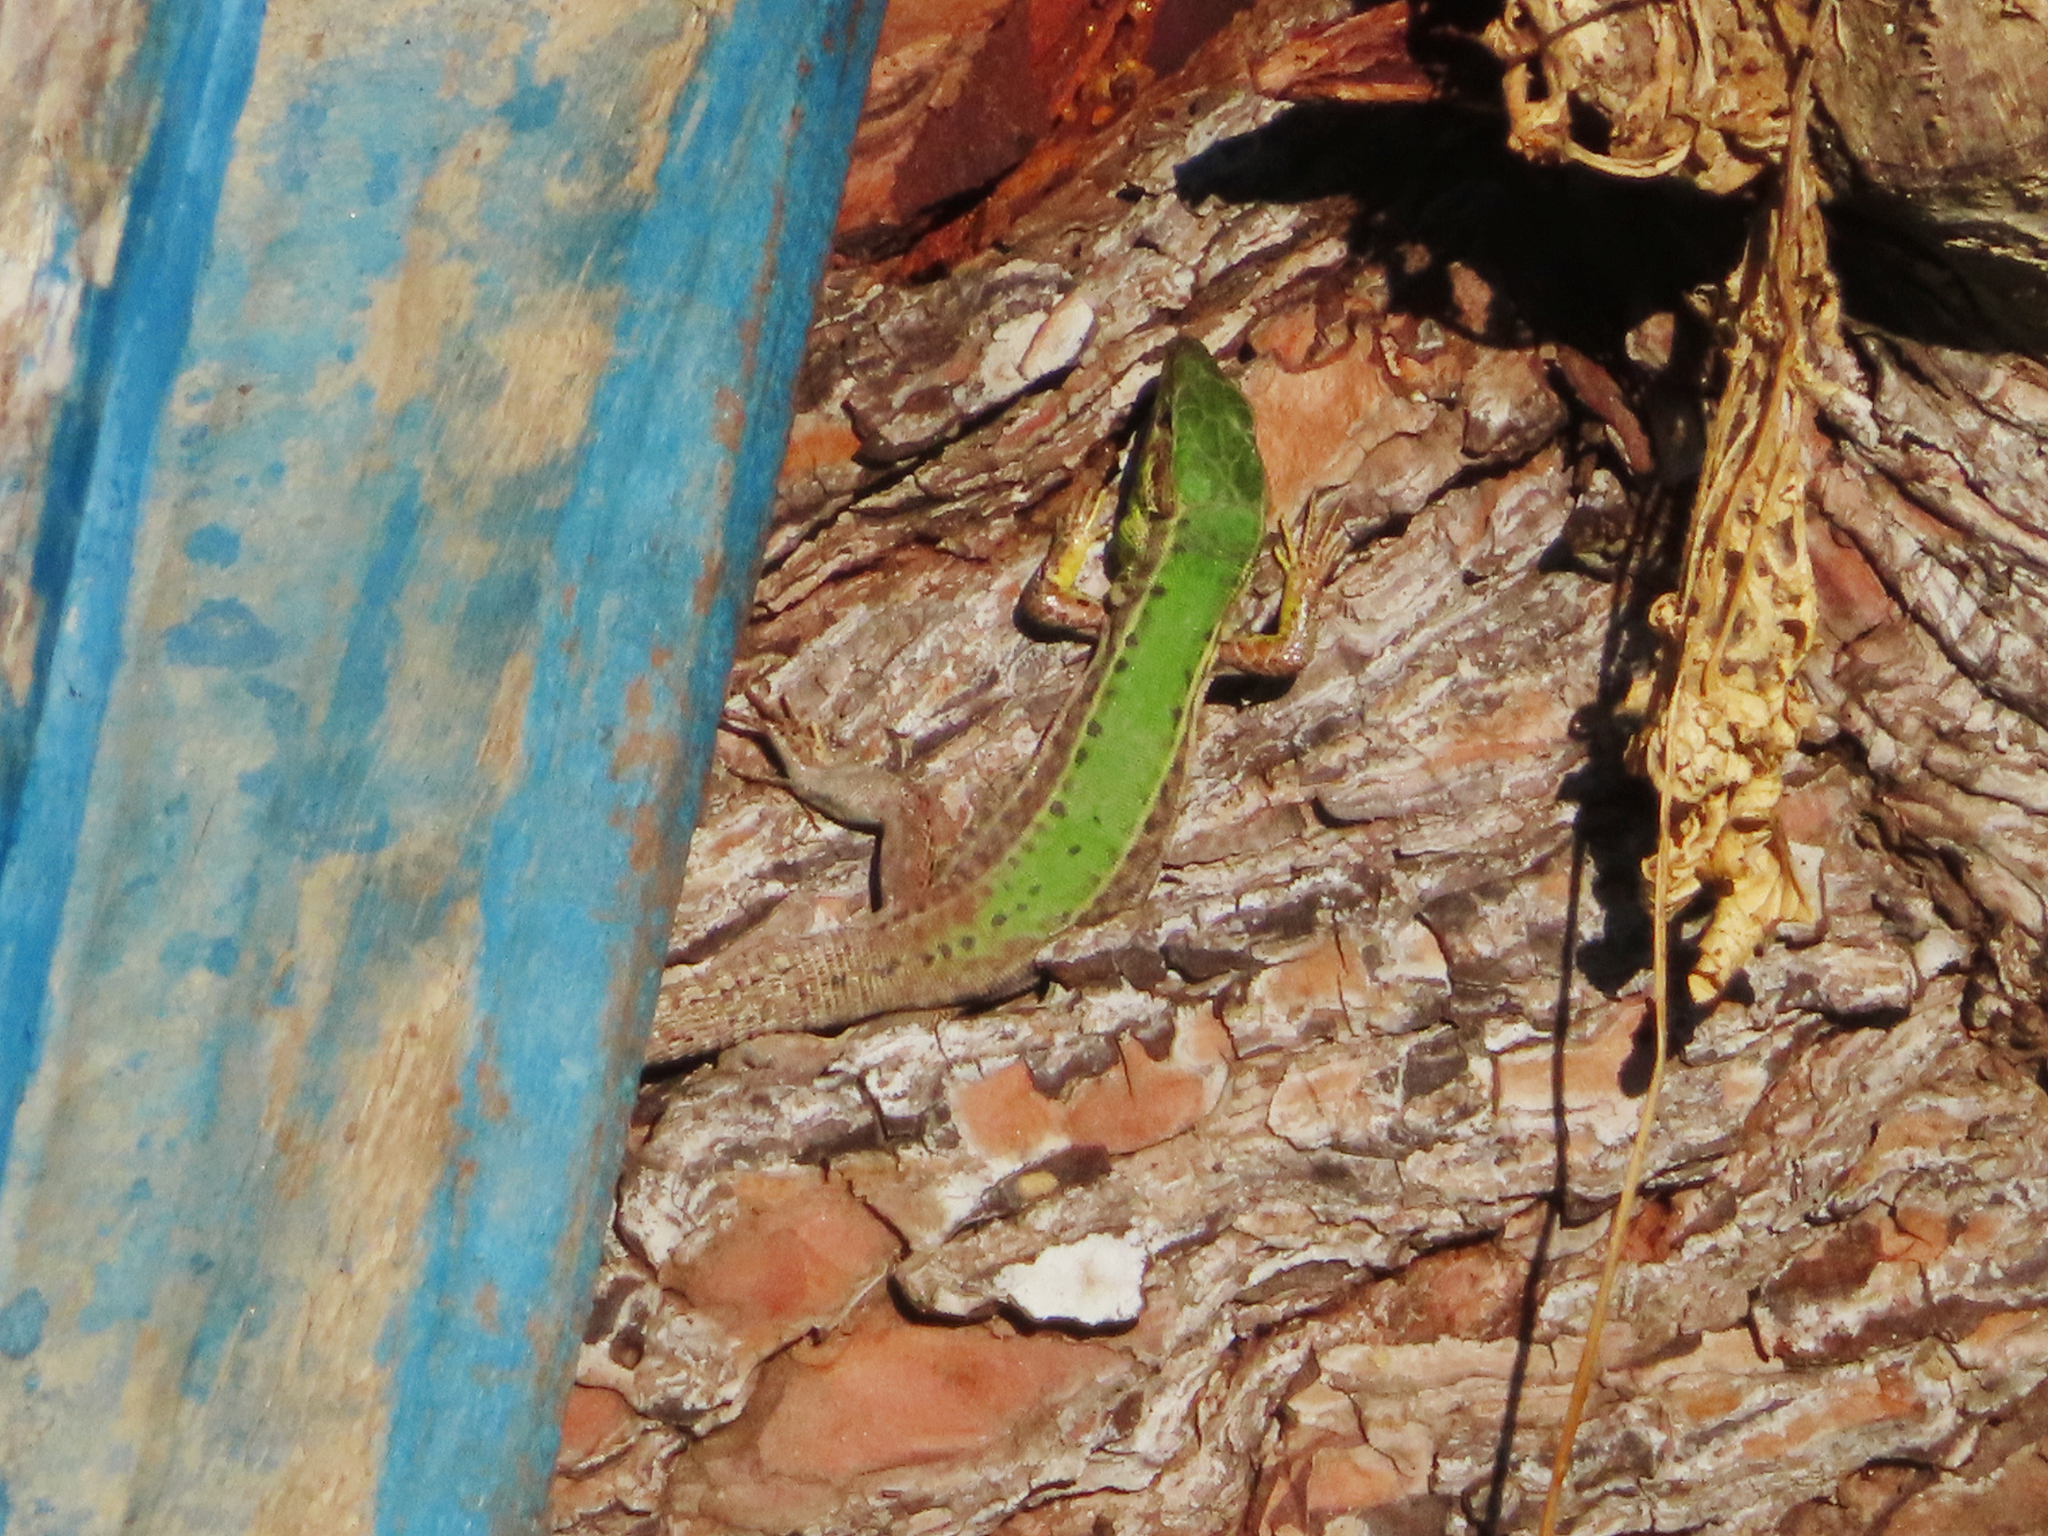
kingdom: Animalia
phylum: Chordata
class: Squamata
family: Lacertidae
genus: Podarcis
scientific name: Podarcis ionicus
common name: Ionian wall lizard
